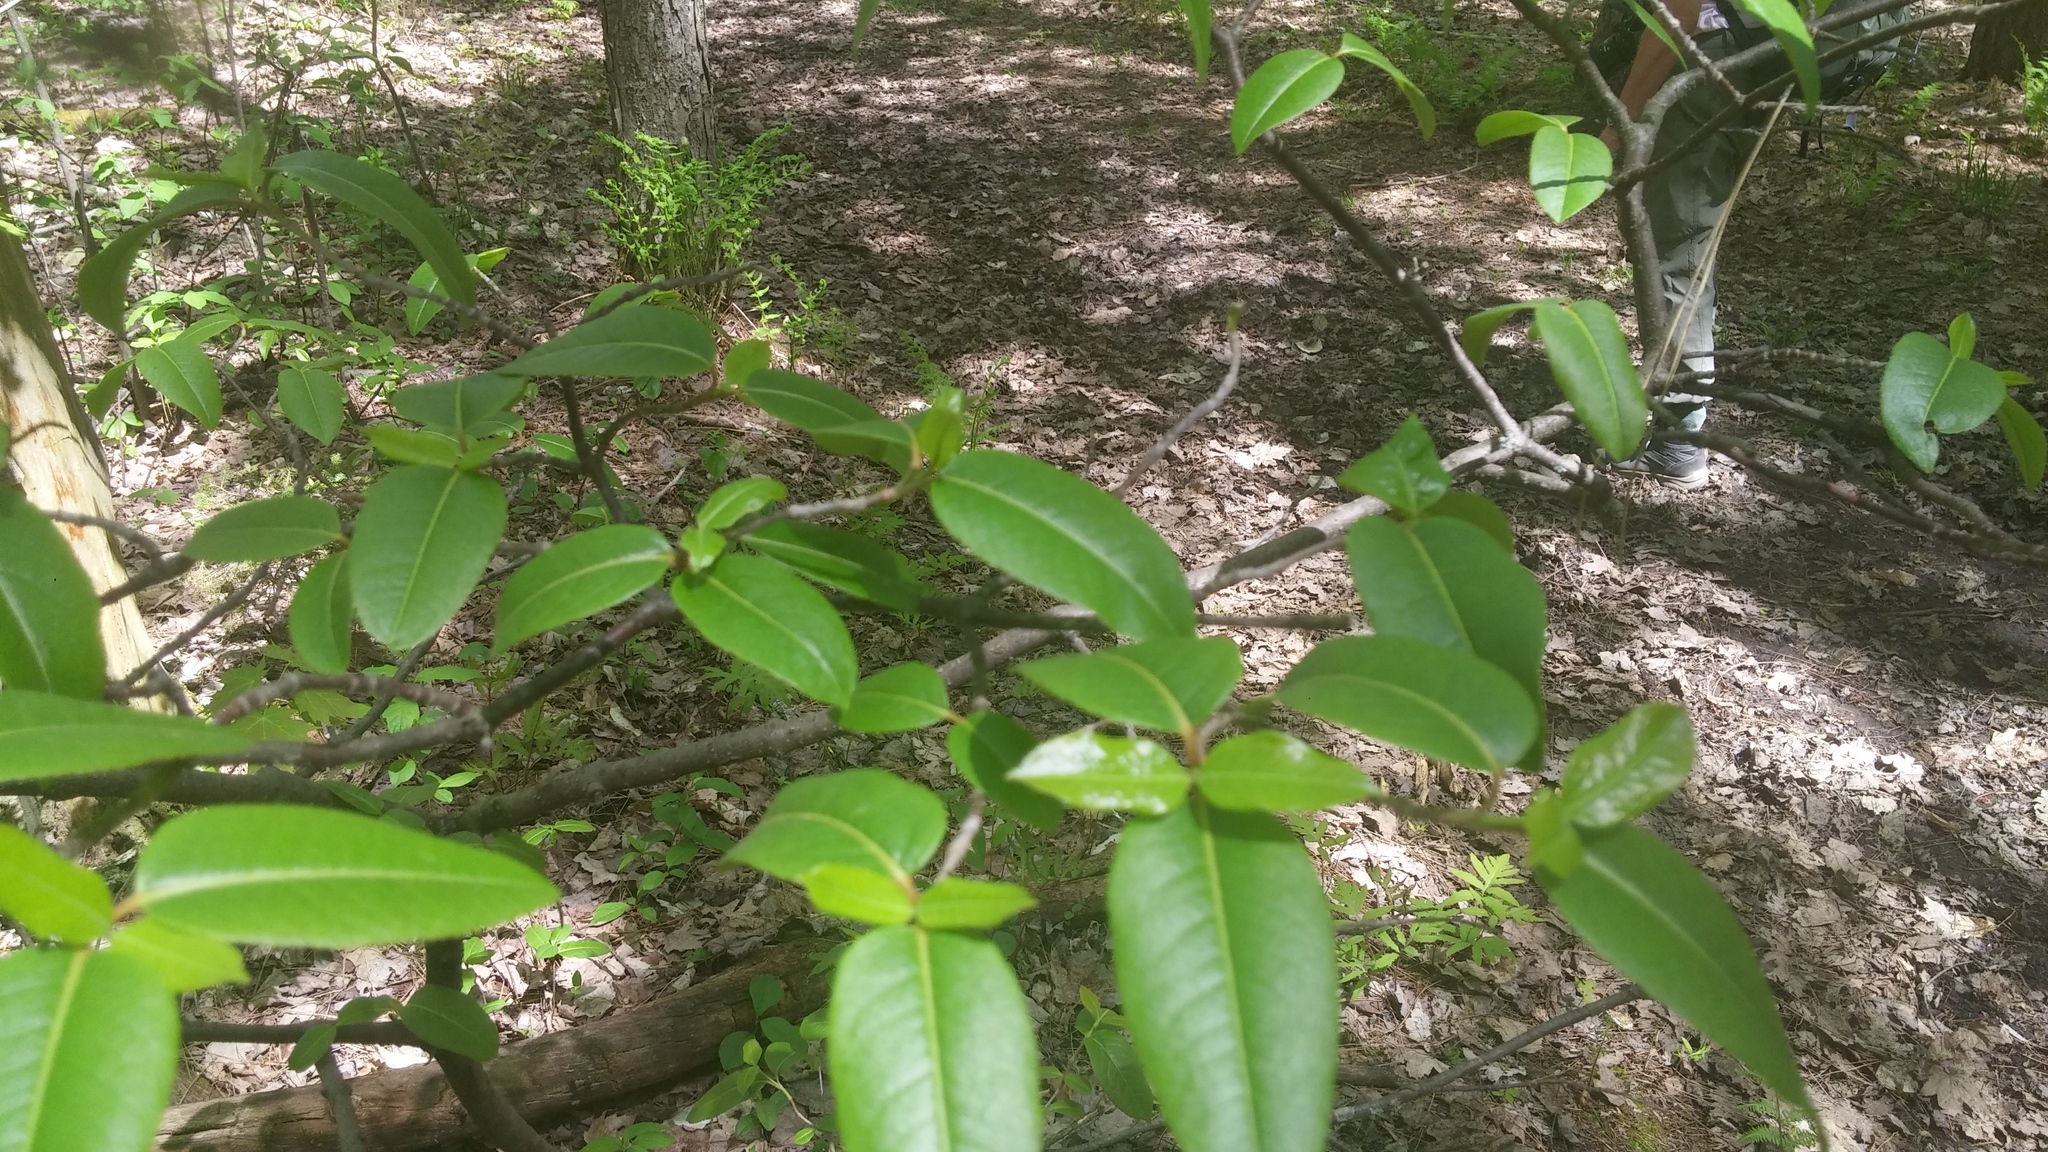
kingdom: Plantae
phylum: Tracheophyta
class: Magnoliopsida
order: Dipsacales
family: Viburnaceae
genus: Viburnum
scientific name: Viburnum cassinoides
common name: Swamp haw
